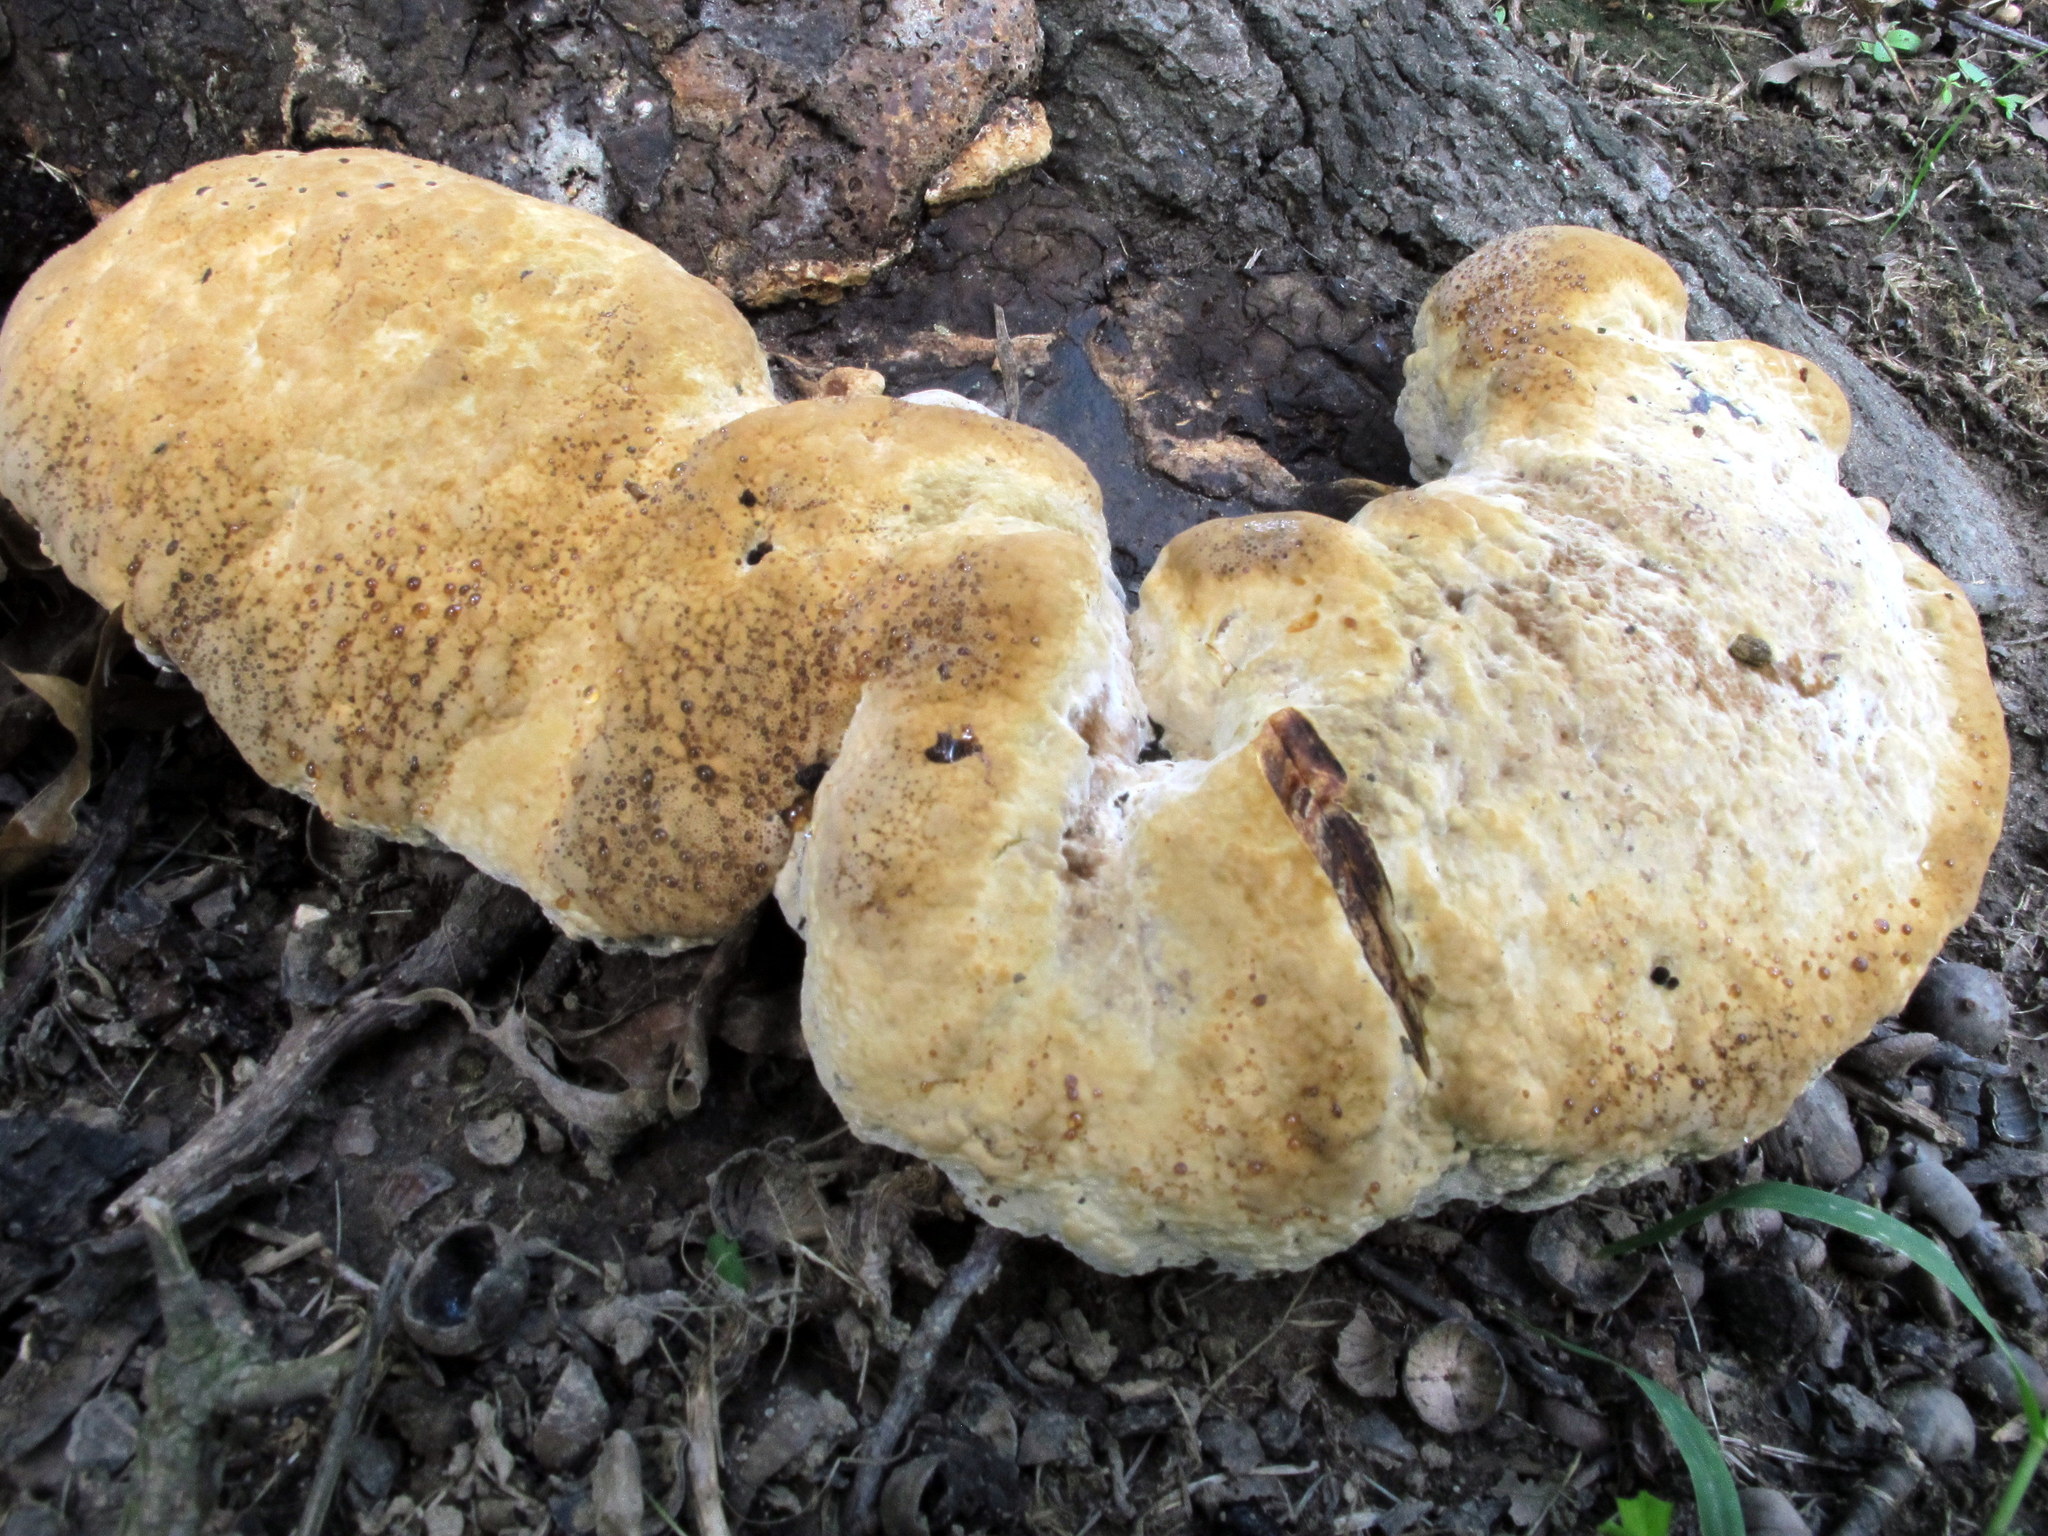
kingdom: Fungi
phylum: Basidiomycota
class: Agaricomycetes
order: Hymenochaetales
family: Hymenochaetaceae
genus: Pseudoinonotus
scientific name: Pseudoinonotus dryadeus
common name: Oak bracket
